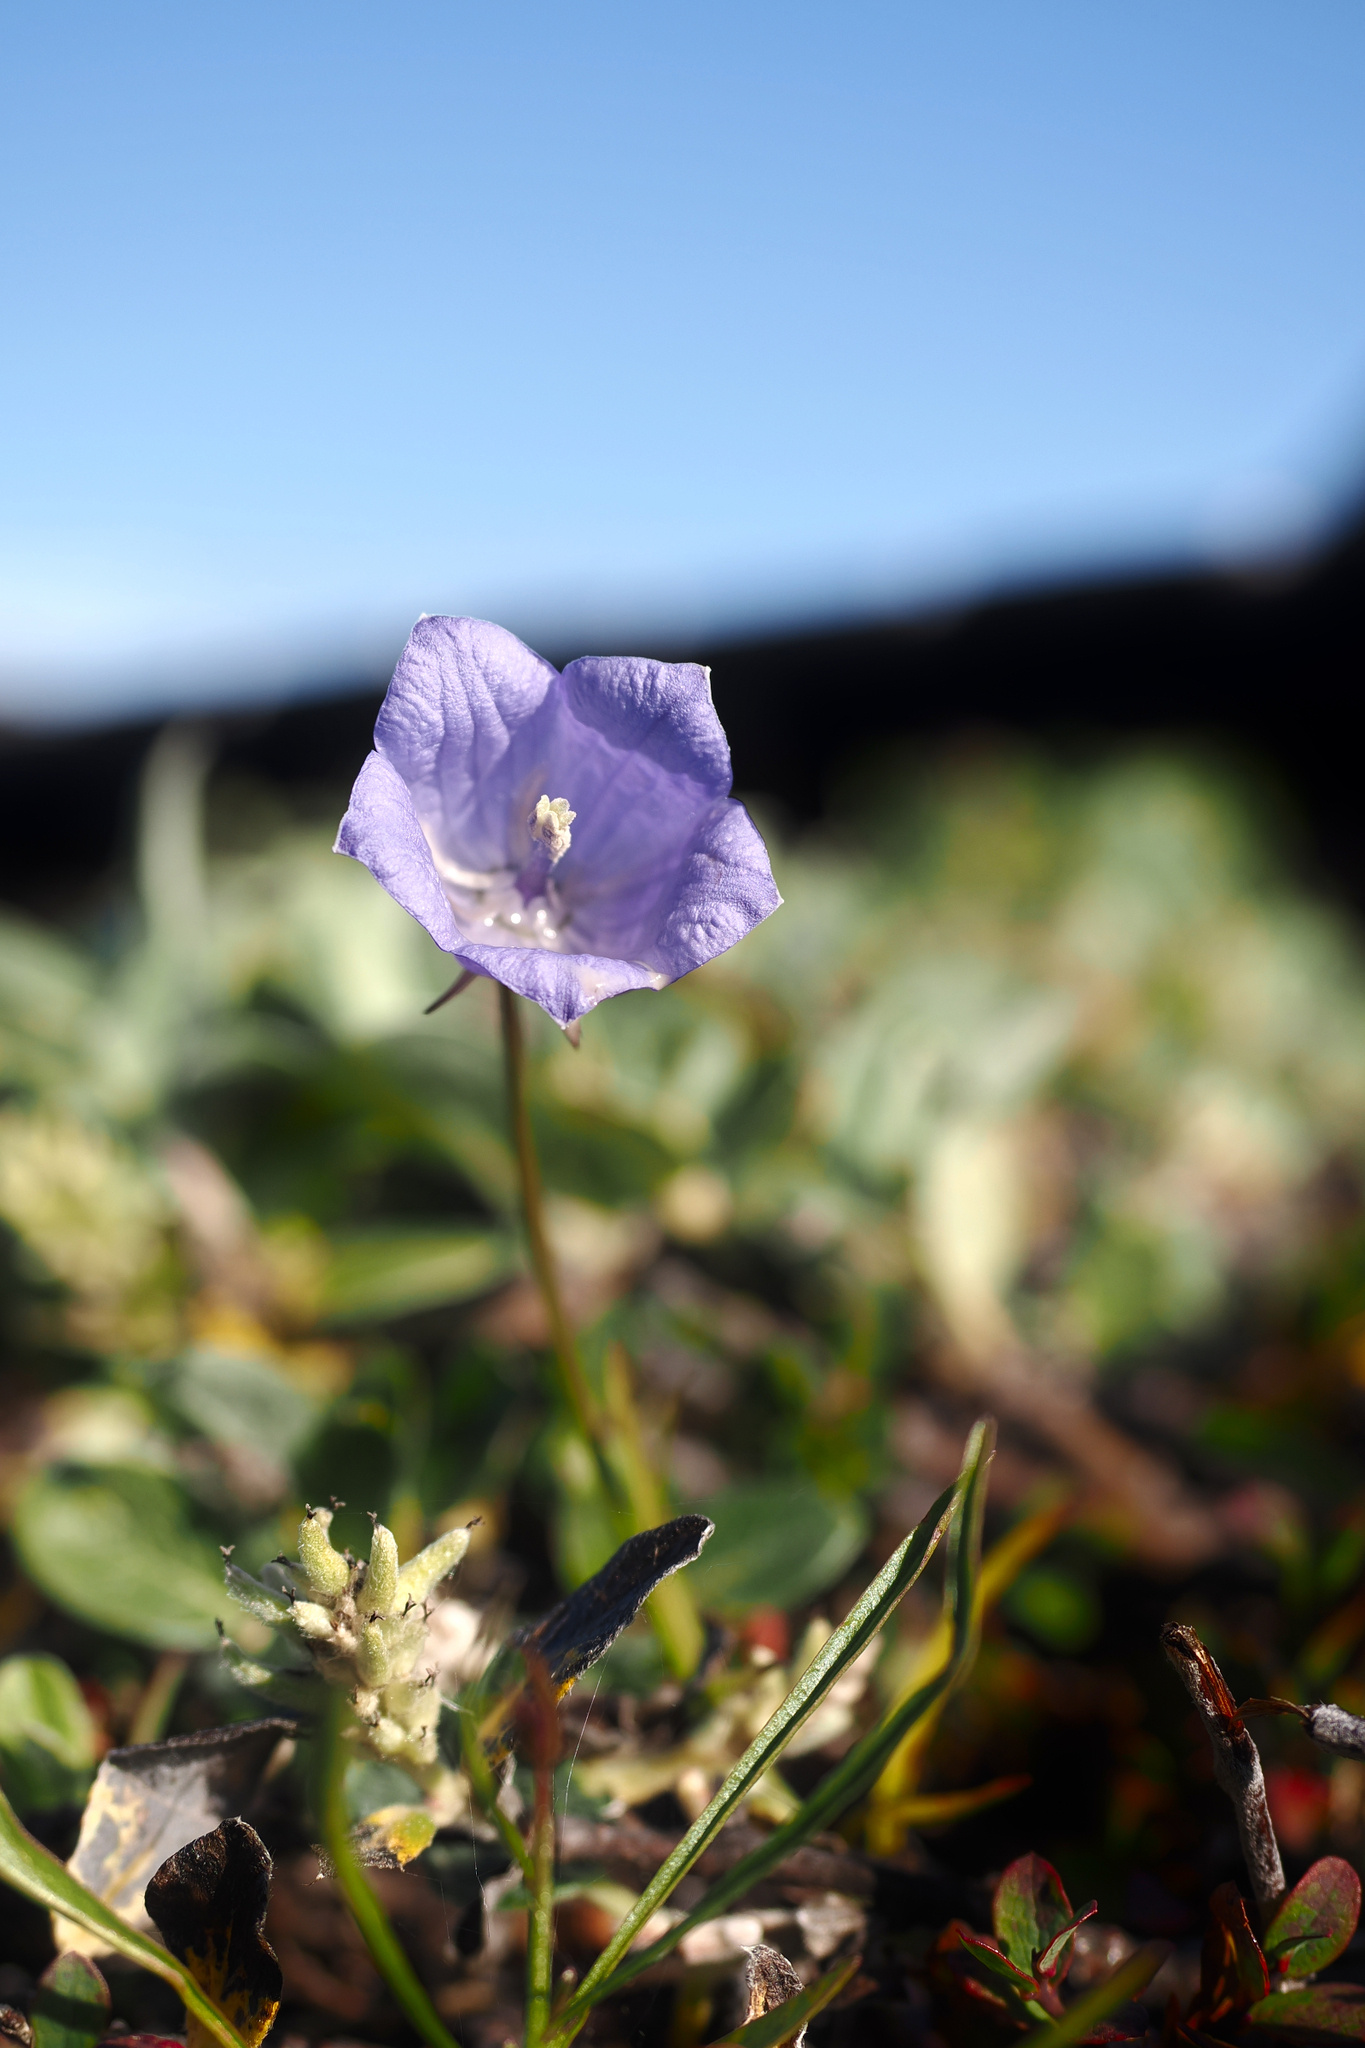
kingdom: Plantae
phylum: Tracheophyta
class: Magnoliopsida
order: Asterales
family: Campanulaceae
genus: Campanula
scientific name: Campanula giesekiana
